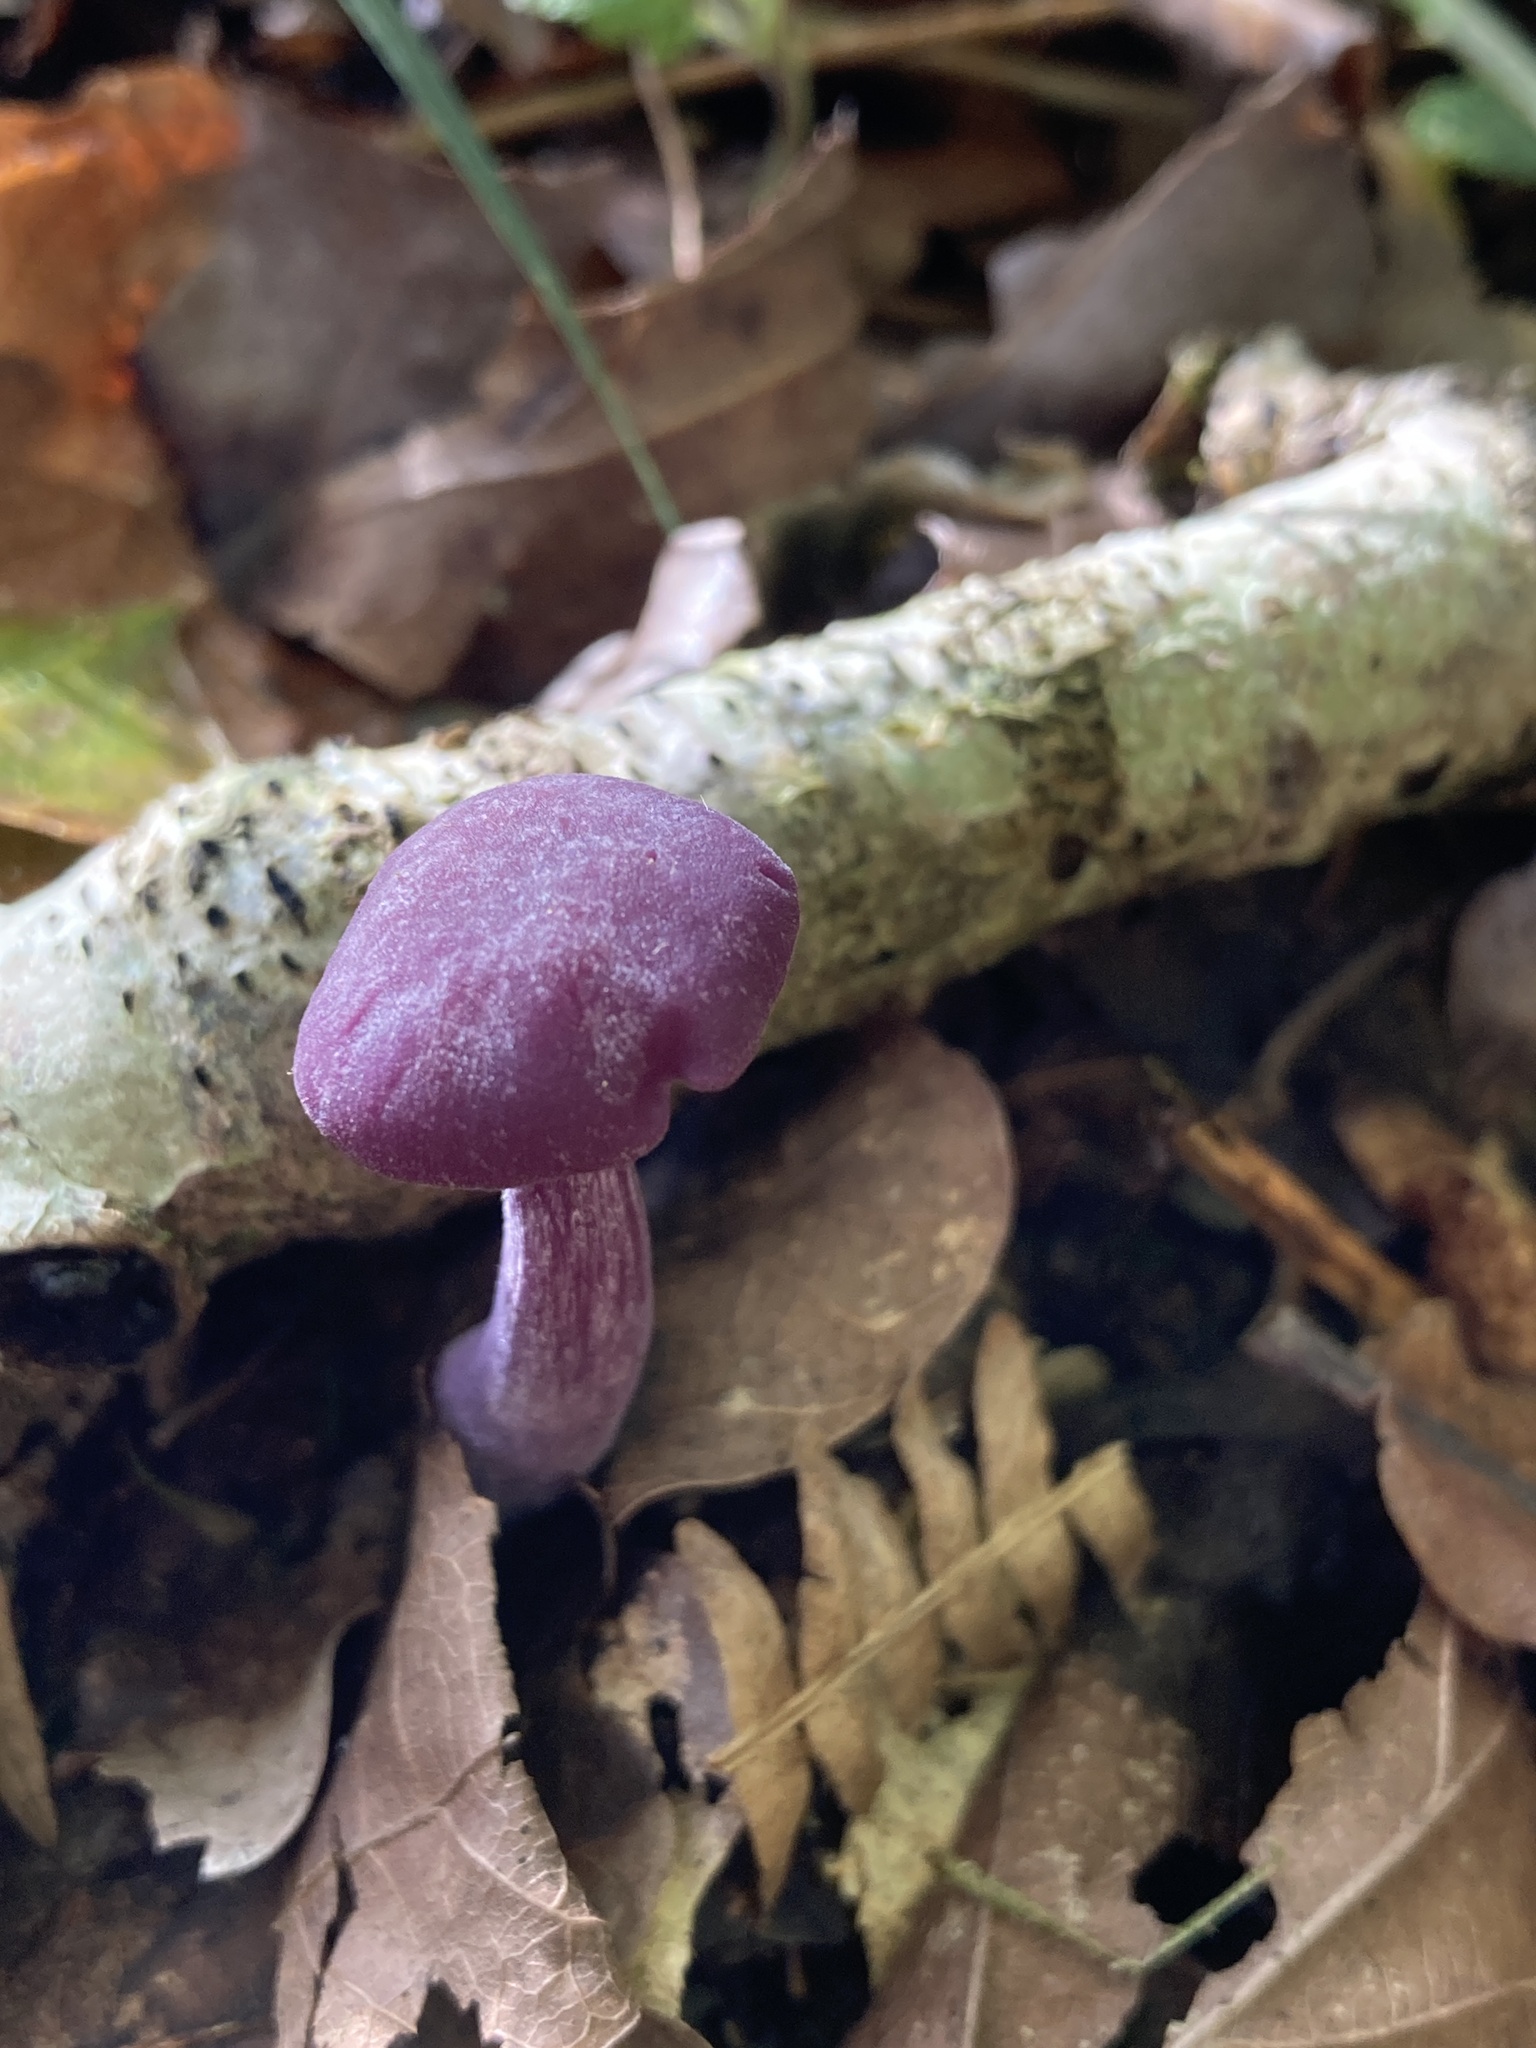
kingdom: Fungi
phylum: Basidiomycota
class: Agaricomycetes
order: Agaricales
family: Hydnangiaceae
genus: Laccaria
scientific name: Laccaria amethystina
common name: Amethyst deceiver
